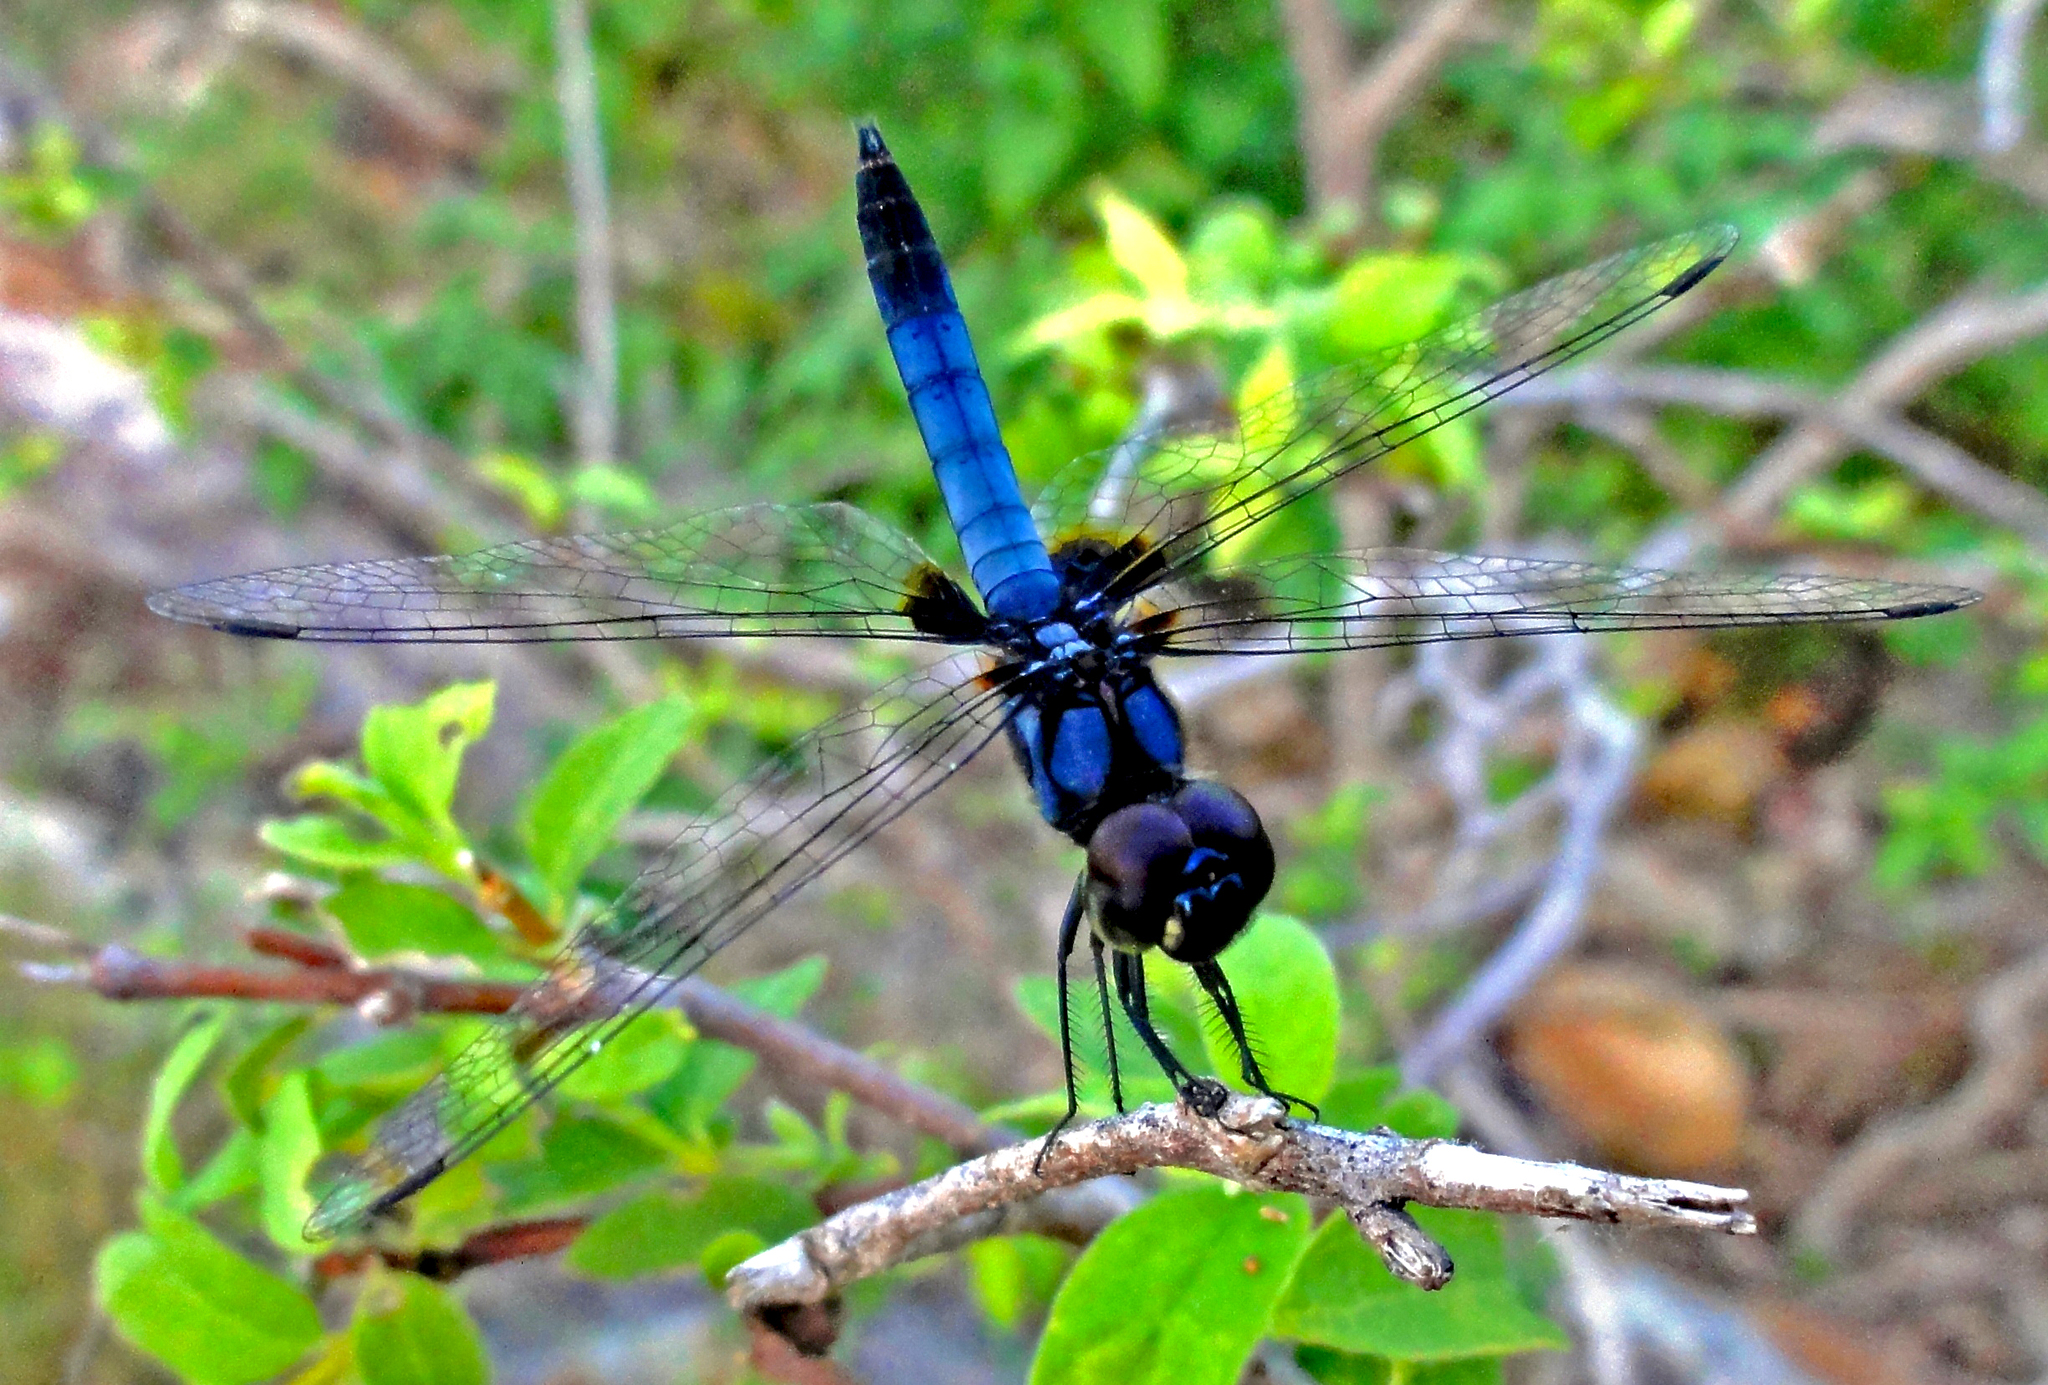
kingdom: Animalia
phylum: Arthropoda
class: Insecta
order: Odonata
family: Libellulidae
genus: Aethriamanta
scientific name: Aethriamanta aethra
